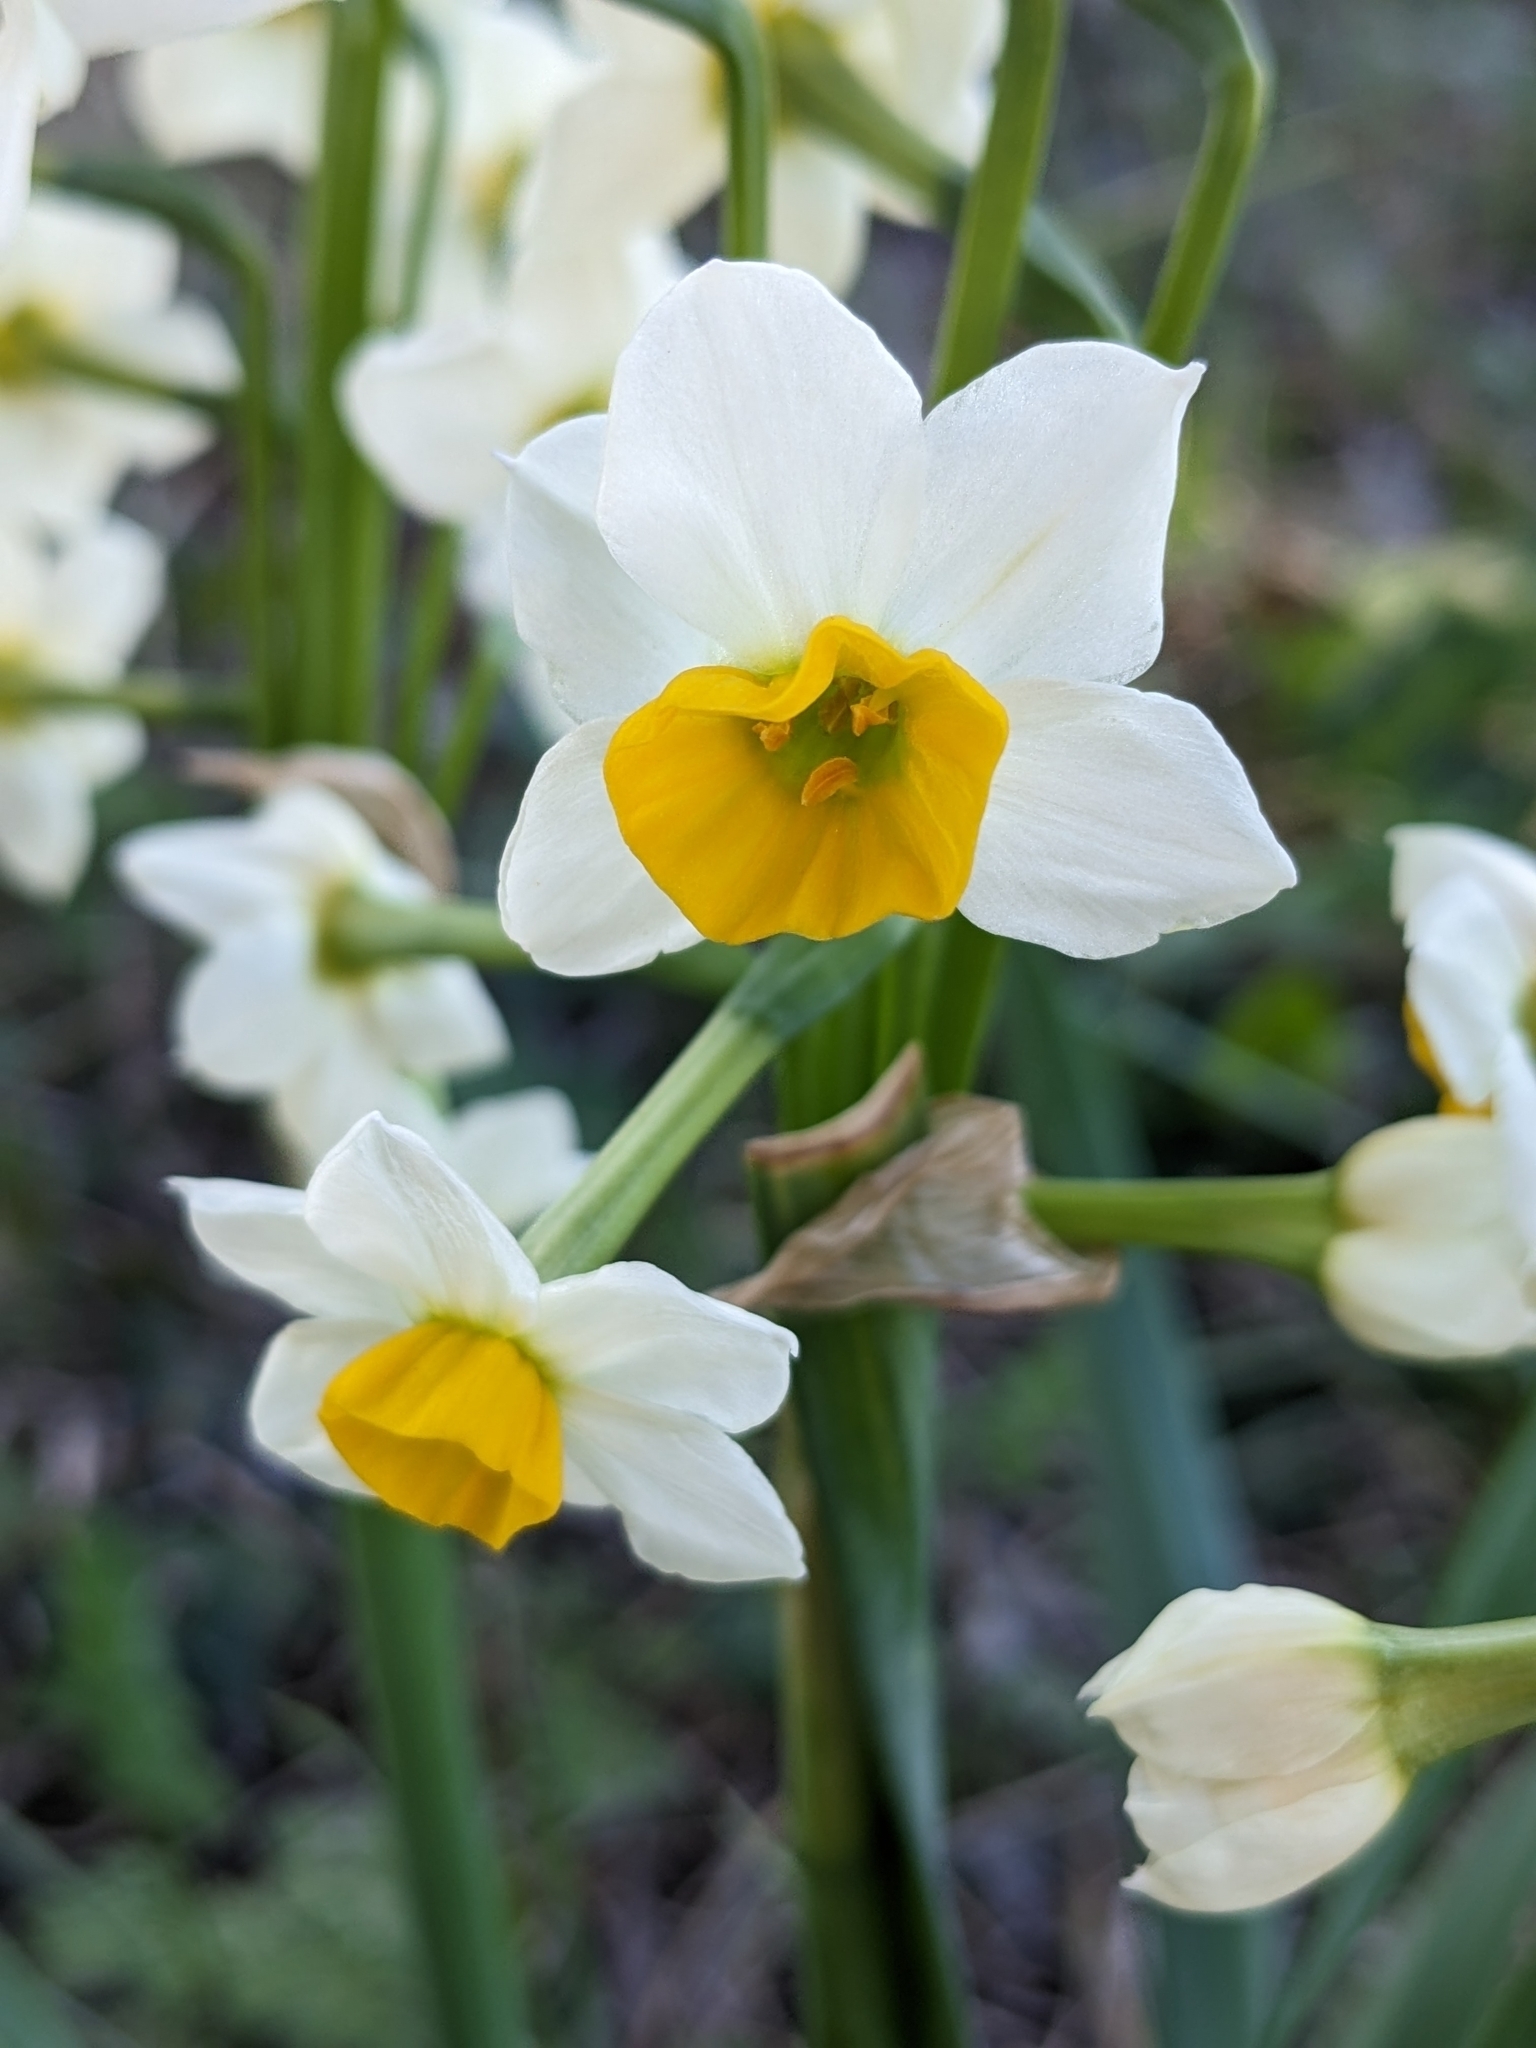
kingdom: Plantae
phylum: Tracheophyta
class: Liliopsida
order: Asparagales
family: Amaryllidaceae
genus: Narcissus
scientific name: Narcissus tazetta
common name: Bunch-flowered daffodil
